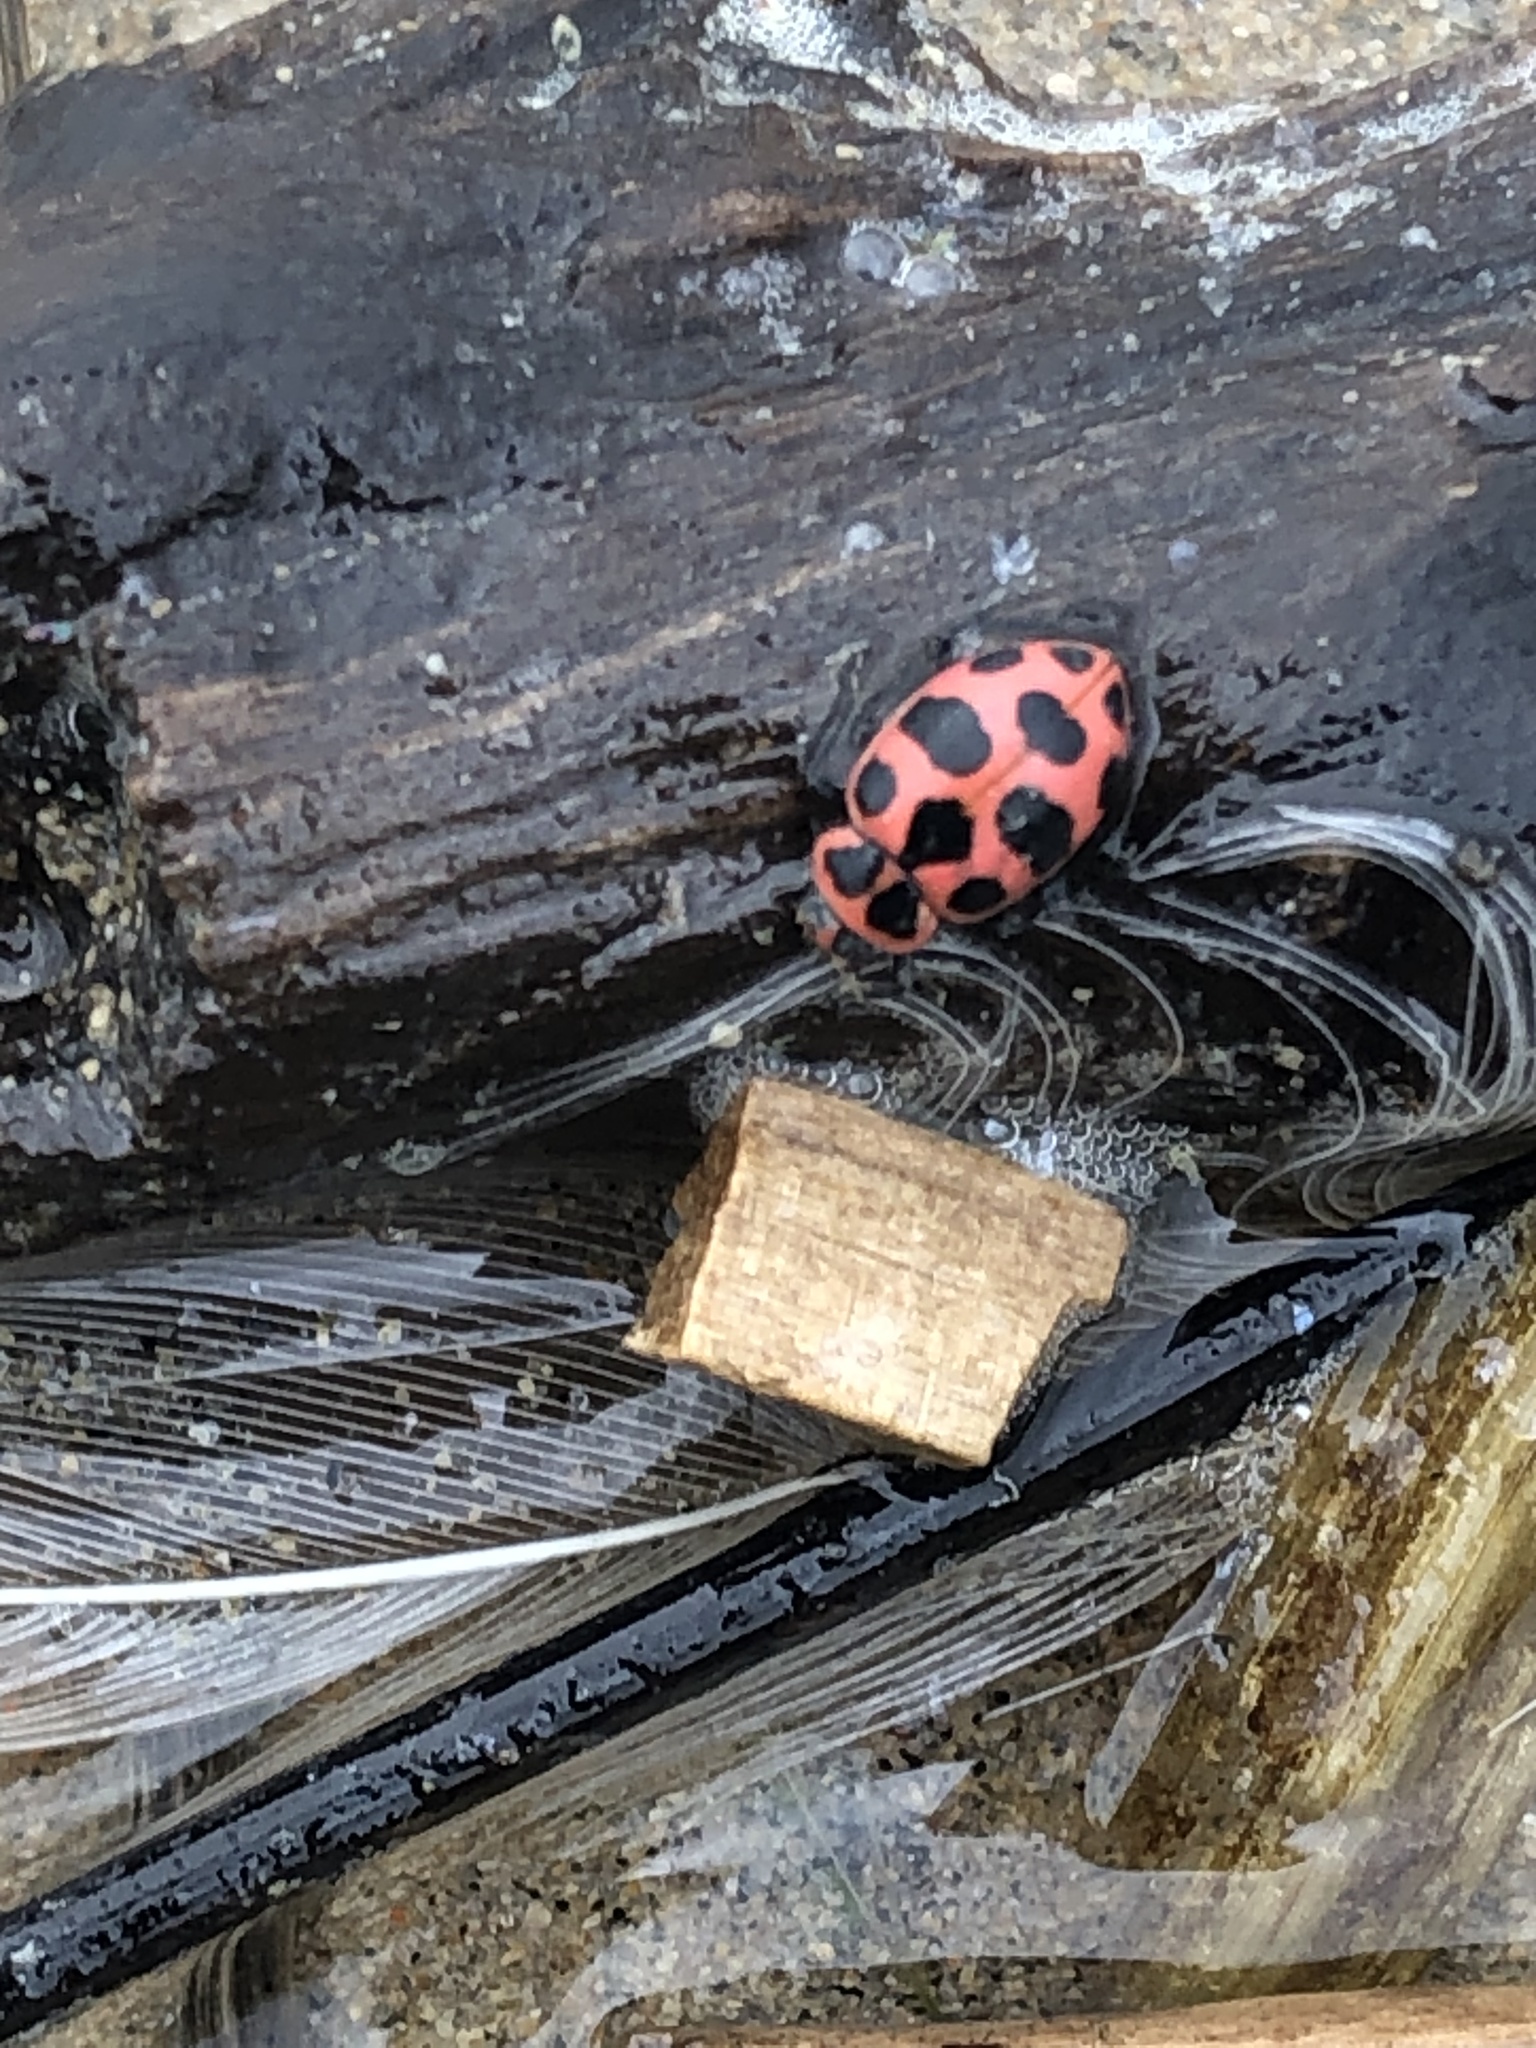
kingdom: Animalia
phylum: Arthropoda
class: Insecta
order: Coleoptera
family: Coccinellidae
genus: Coleomegilla
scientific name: Coleomegilla maculata
